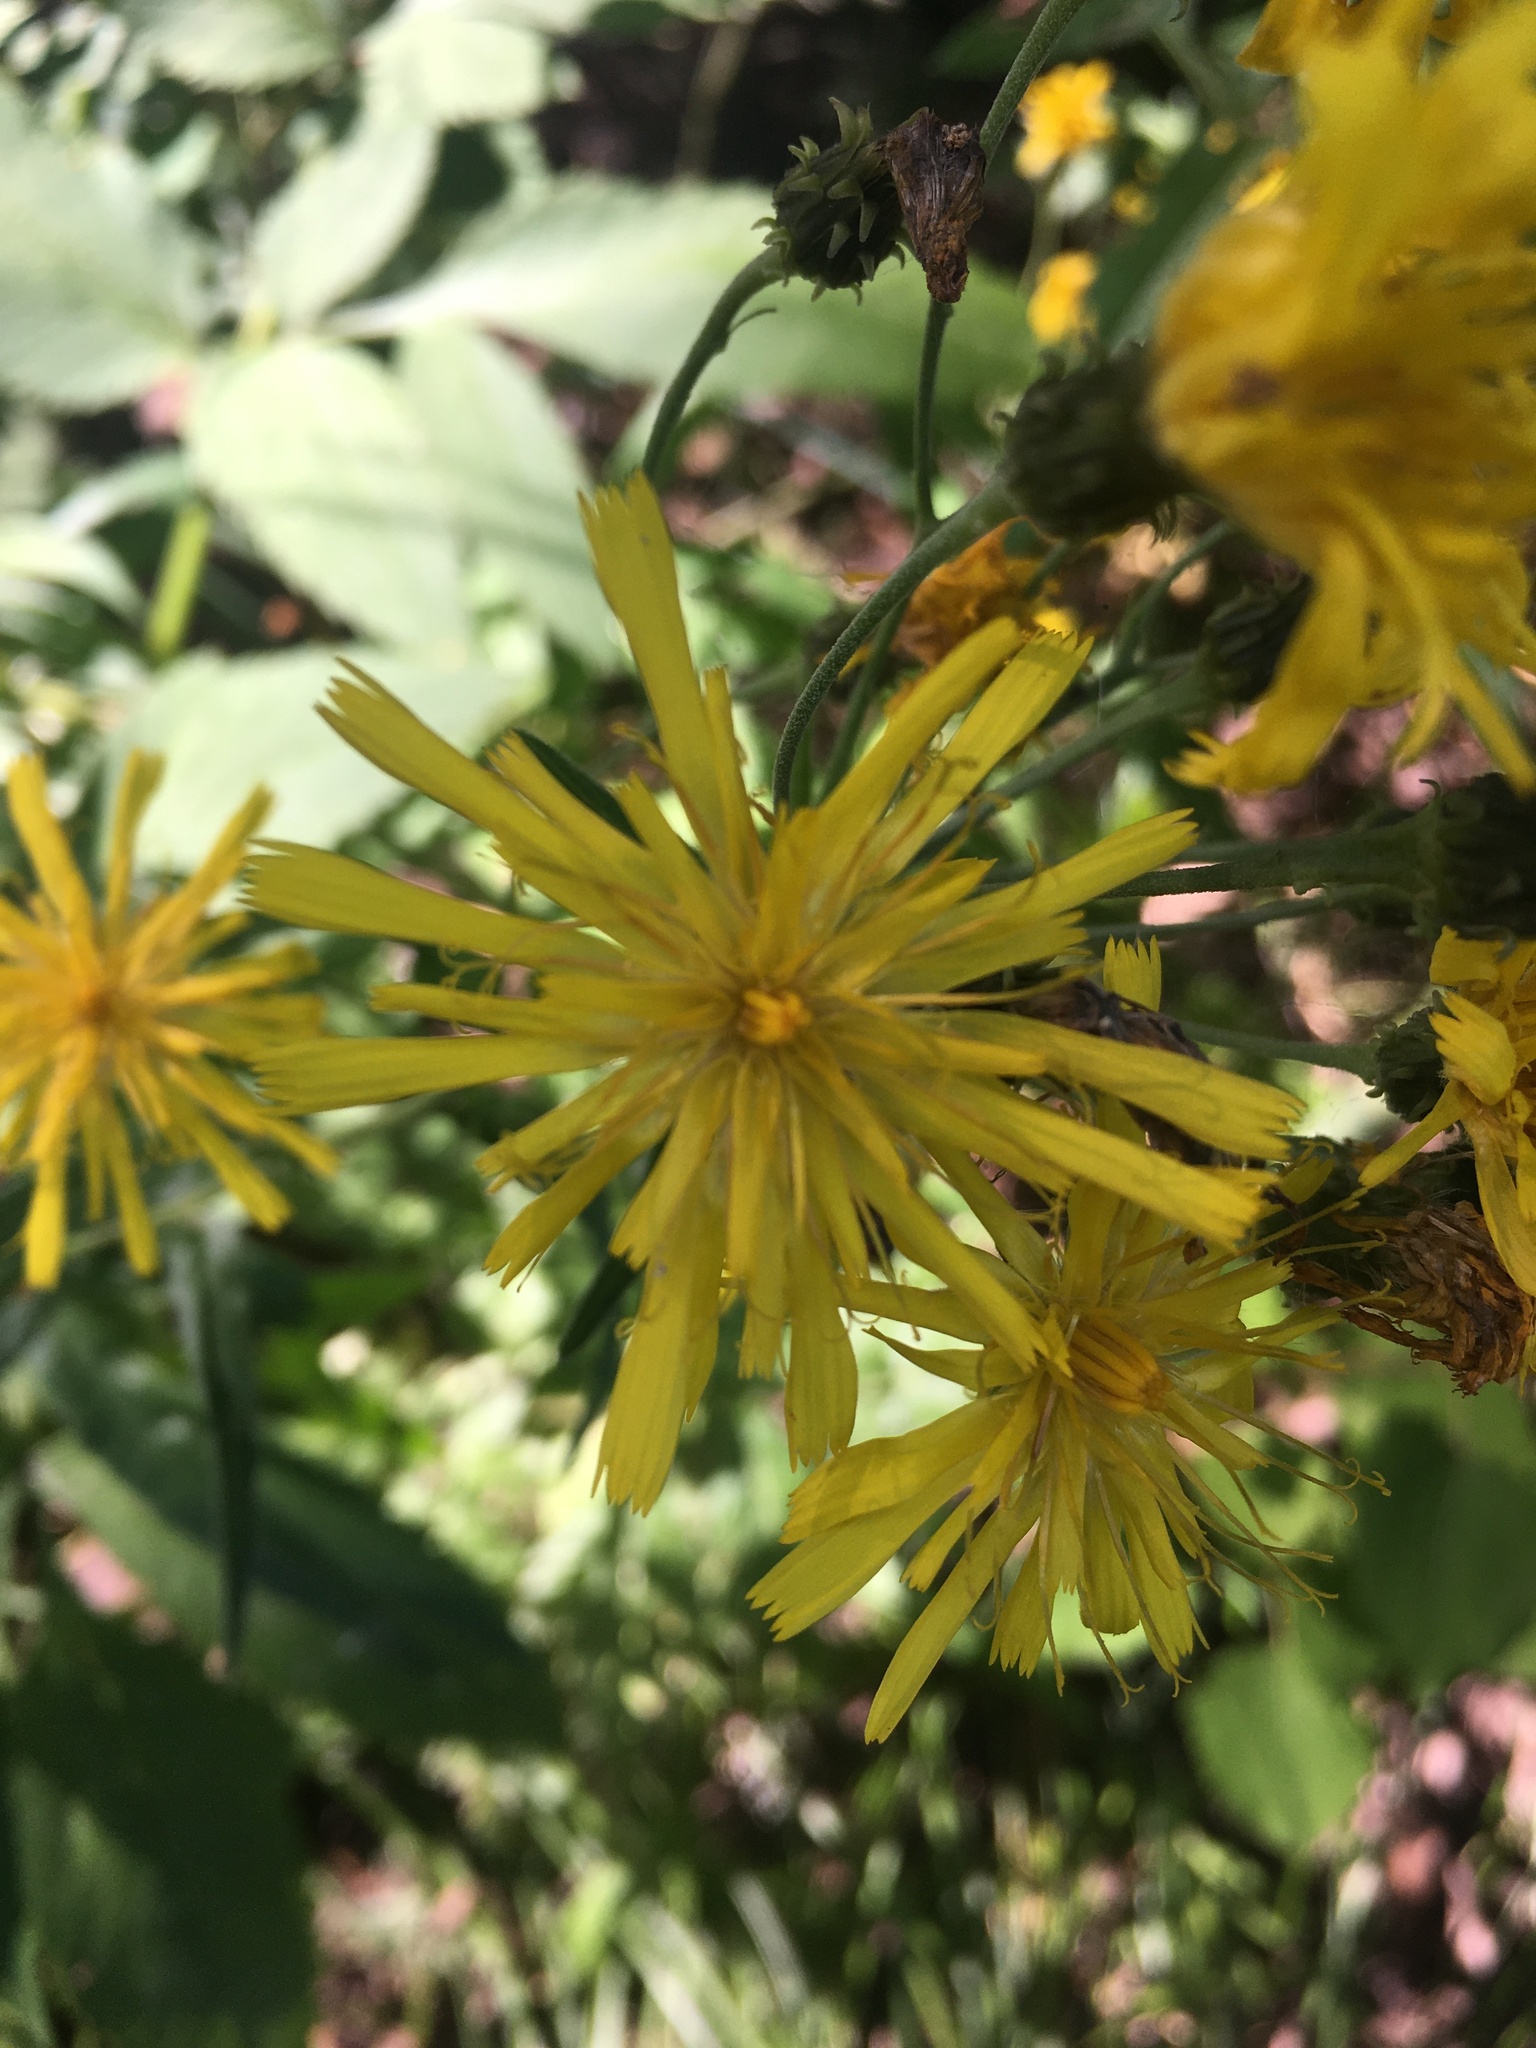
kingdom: Plantae
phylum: Tracheophyta
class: Magnoliopsida
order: Asterales
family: Asteraceae
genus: Hieracium
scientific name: Hieracium umbellatum
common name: Northern hawkweed
